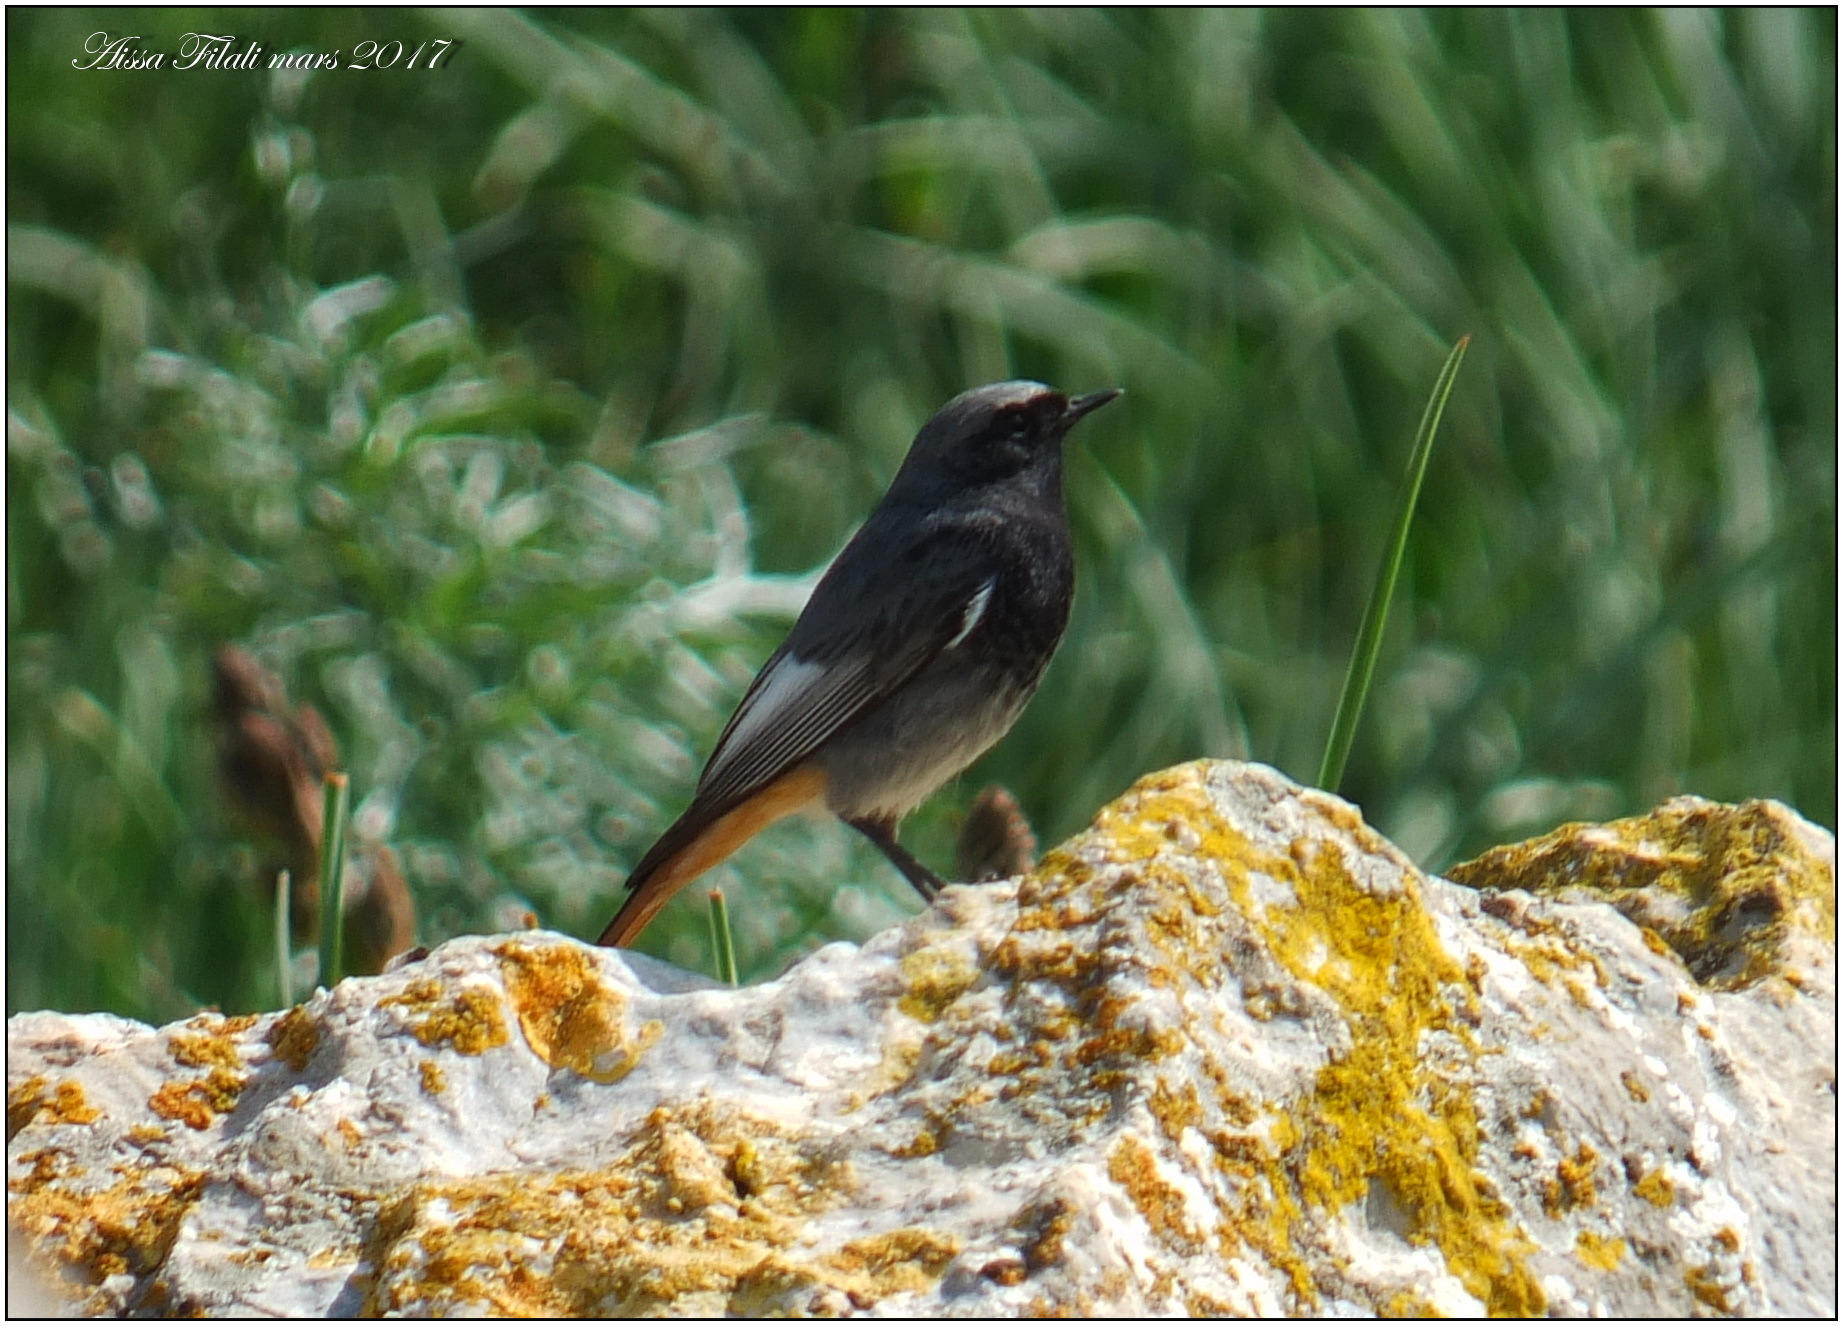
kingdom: Animalia
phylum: Chordata
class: Aves
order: Passeriformes
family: Muscicapidae
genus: Phoenicurus
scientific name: Phoenicurus ochruros
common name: Black redstart
